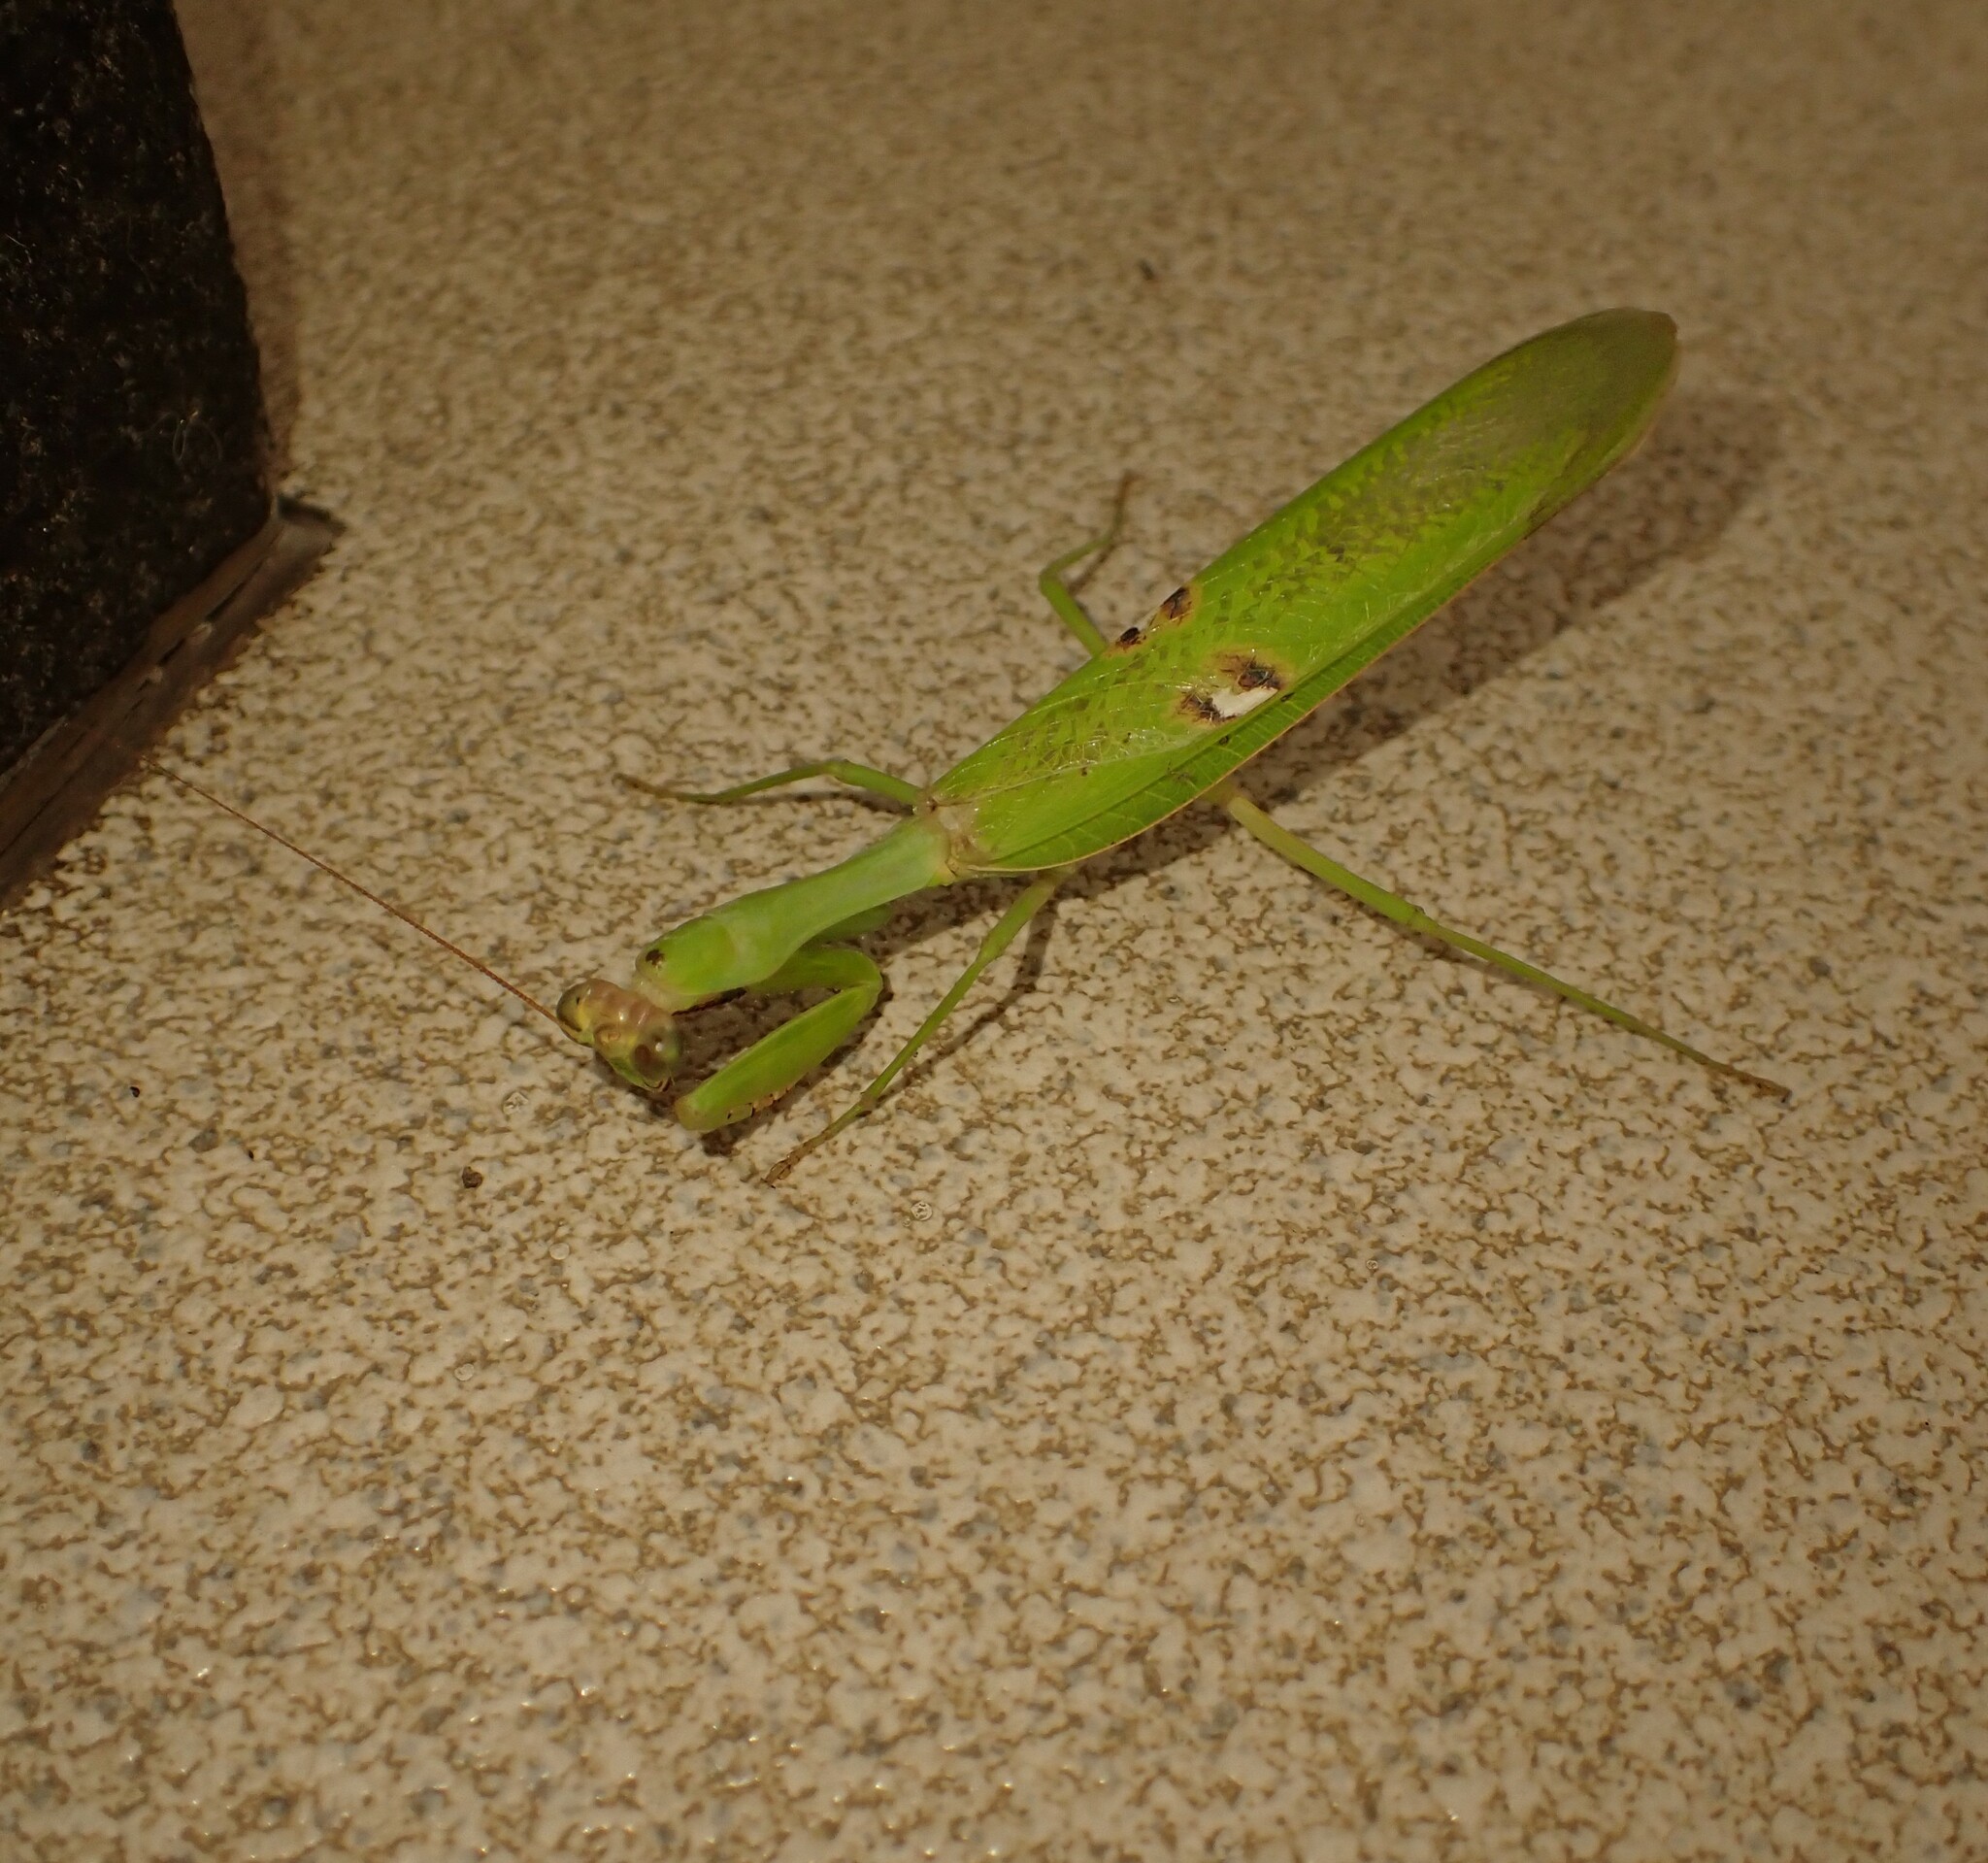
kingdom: Animalia
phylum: Arthropoda
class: Insecta
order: Mantodea
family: Mantidae
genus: Stagmatoptera
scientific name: Stagmatoptera reimoseri
